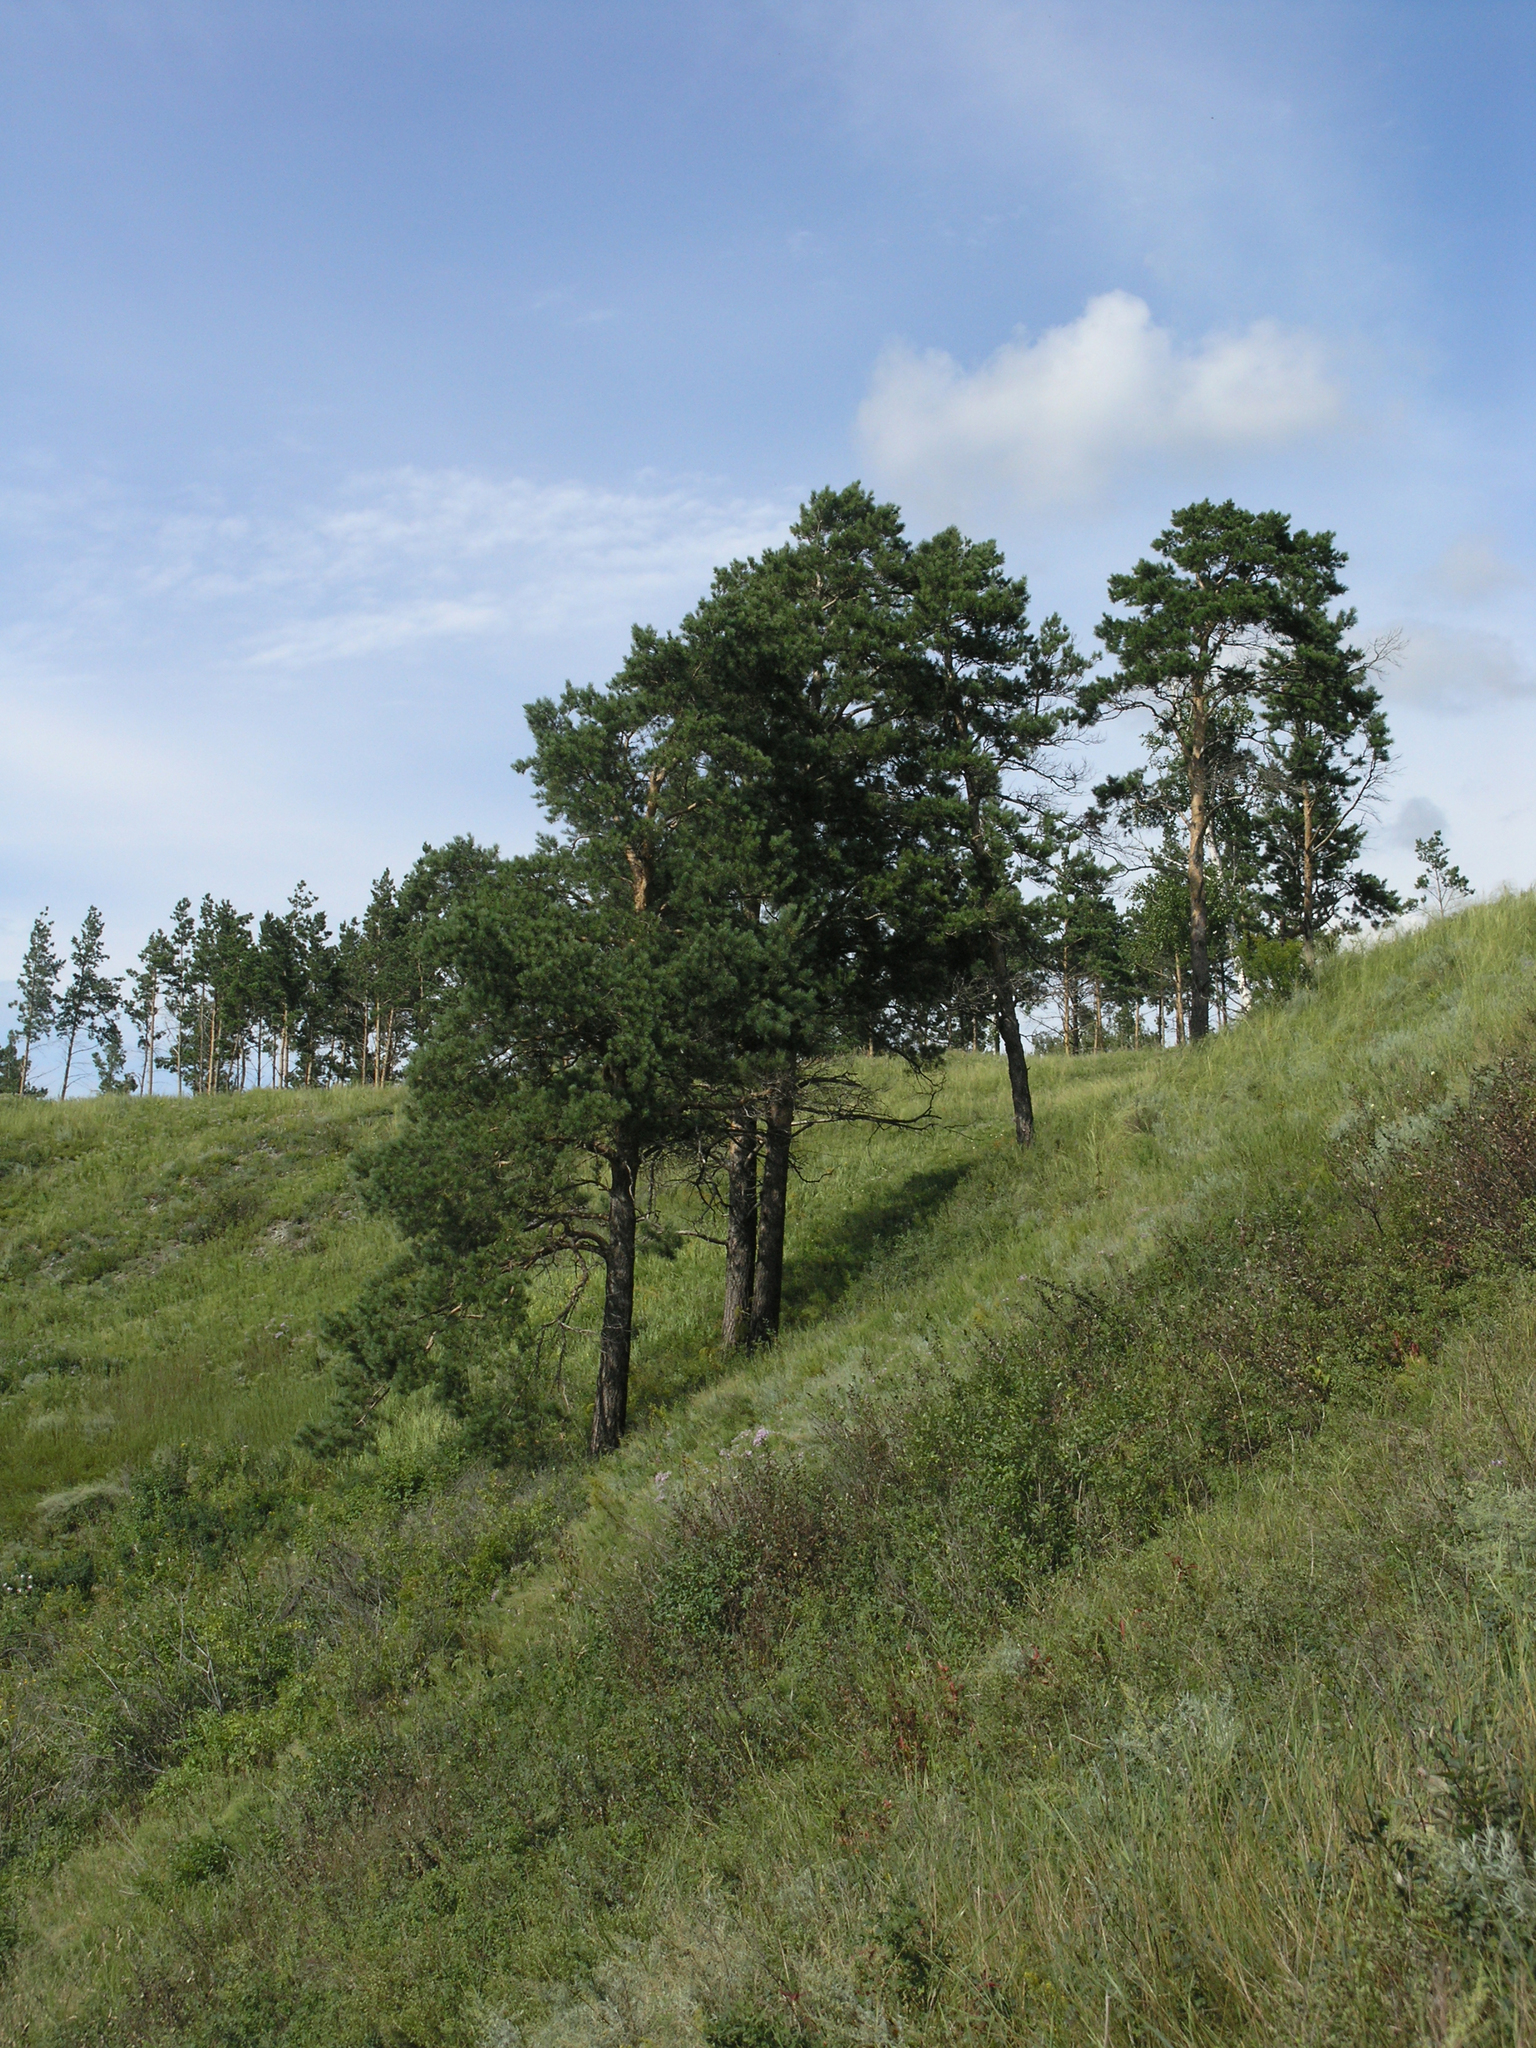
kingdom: Plantae
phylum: Tracheophyta
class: Pinopsida
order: Pinales
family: Pinaceae
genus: Pinus
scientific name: Pinus sylvestris
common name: Scots pine
